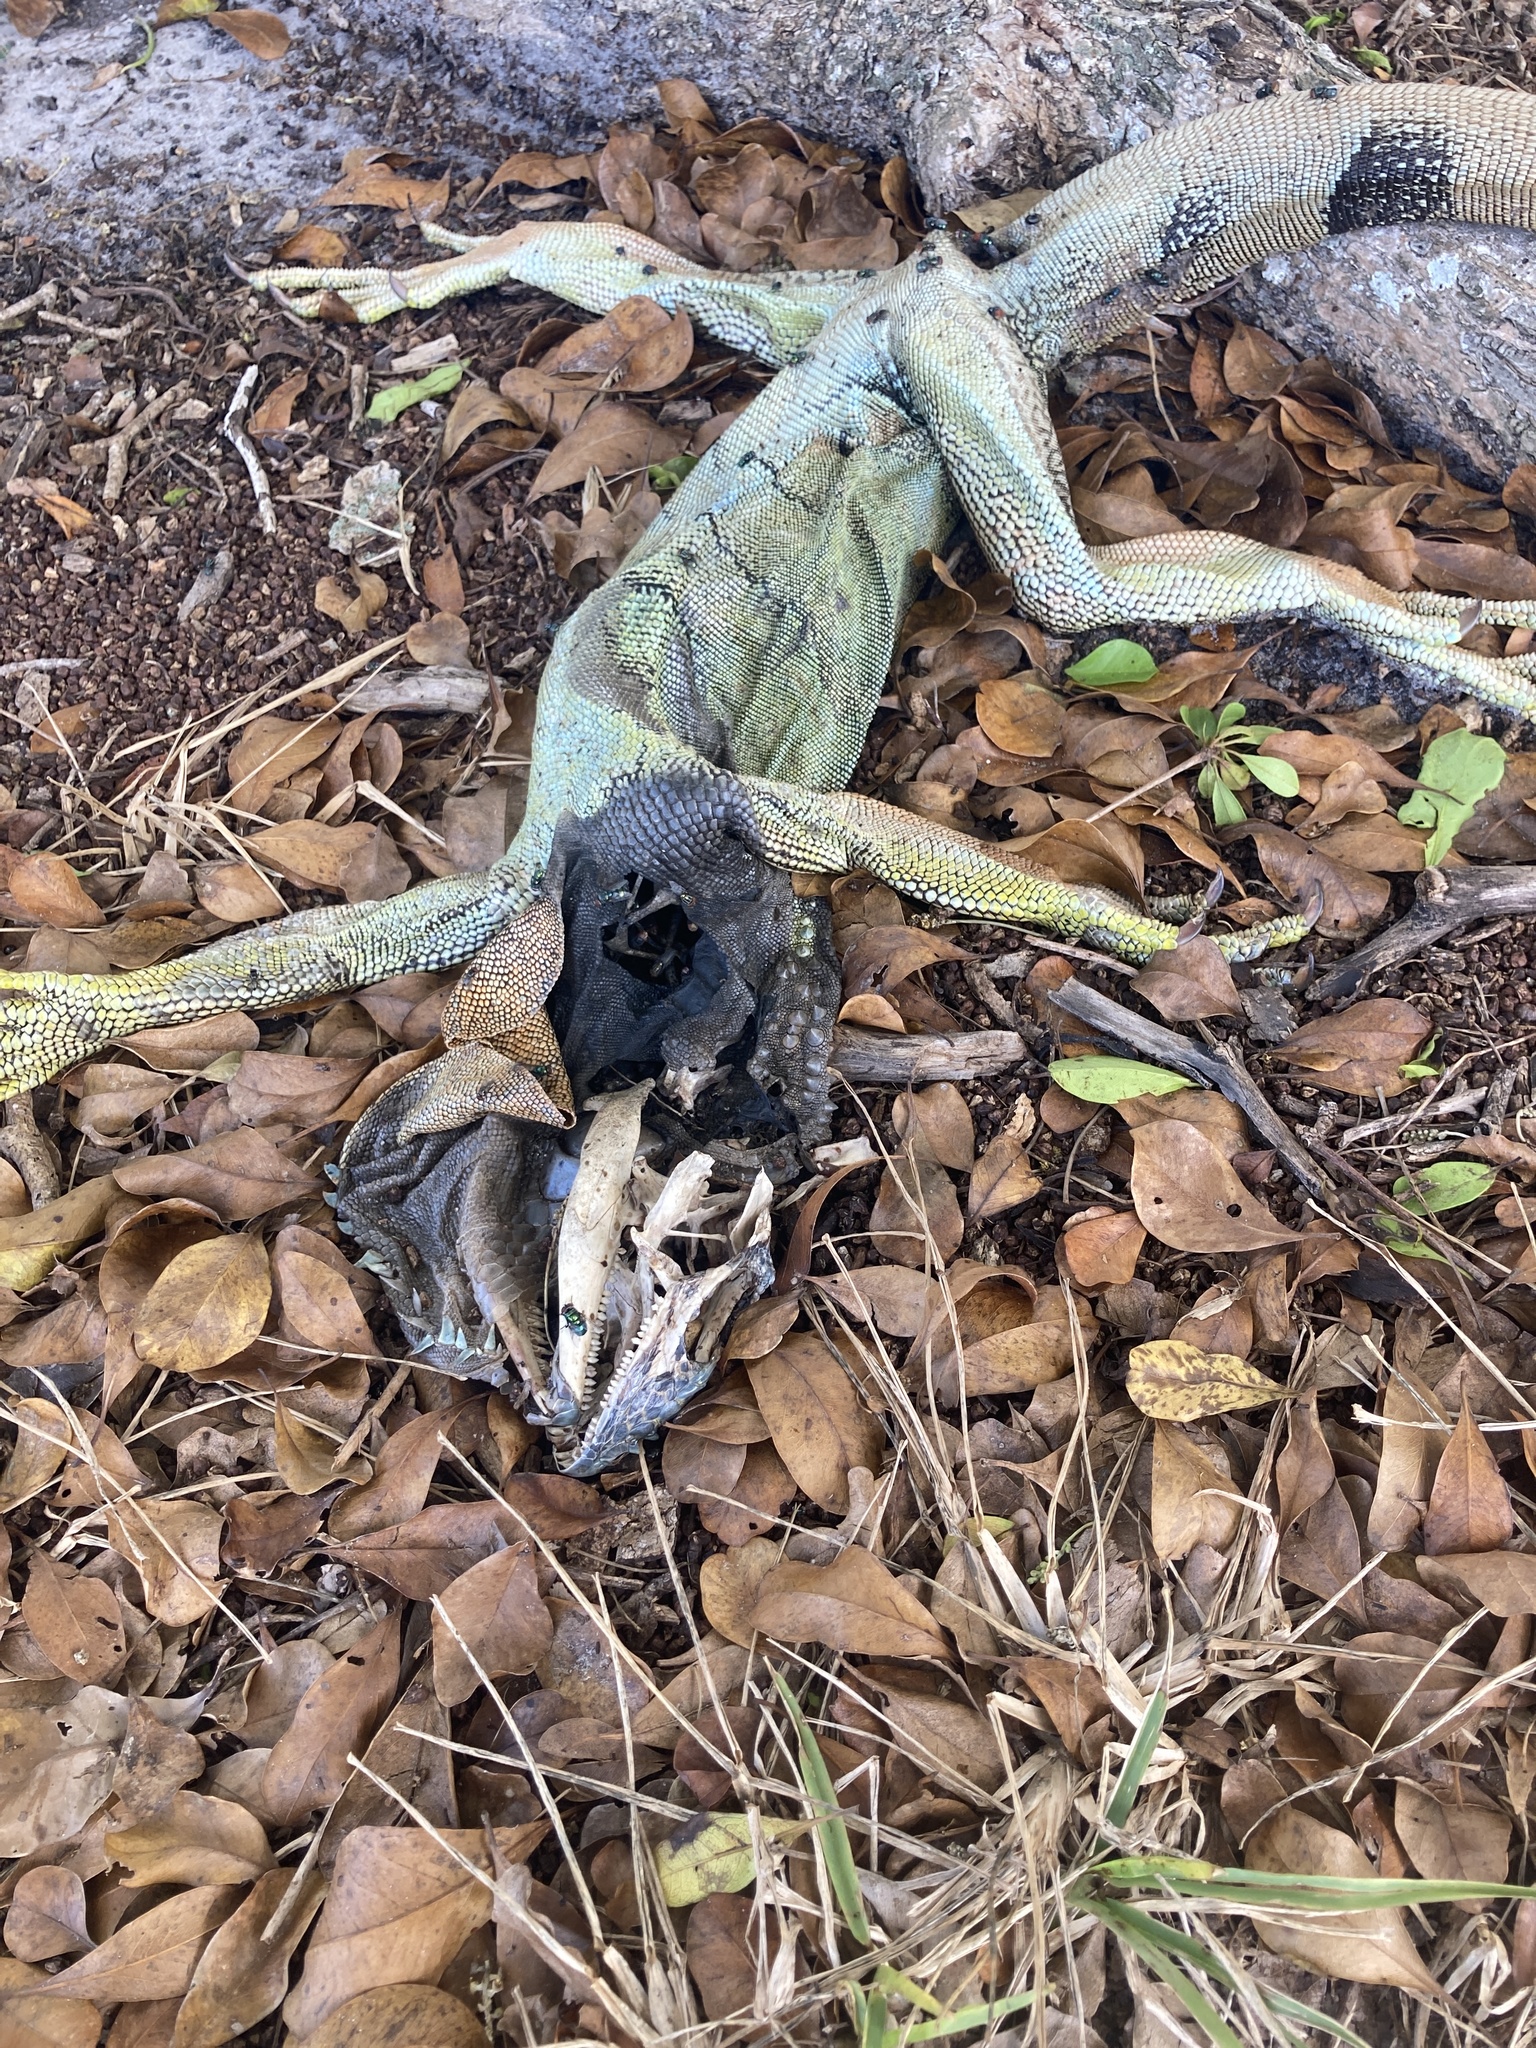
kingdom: Animalia
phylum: Chordata
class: Squamata
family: Iguanidae
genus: Iguana
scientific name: Iguana iguana
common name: Green iguana
